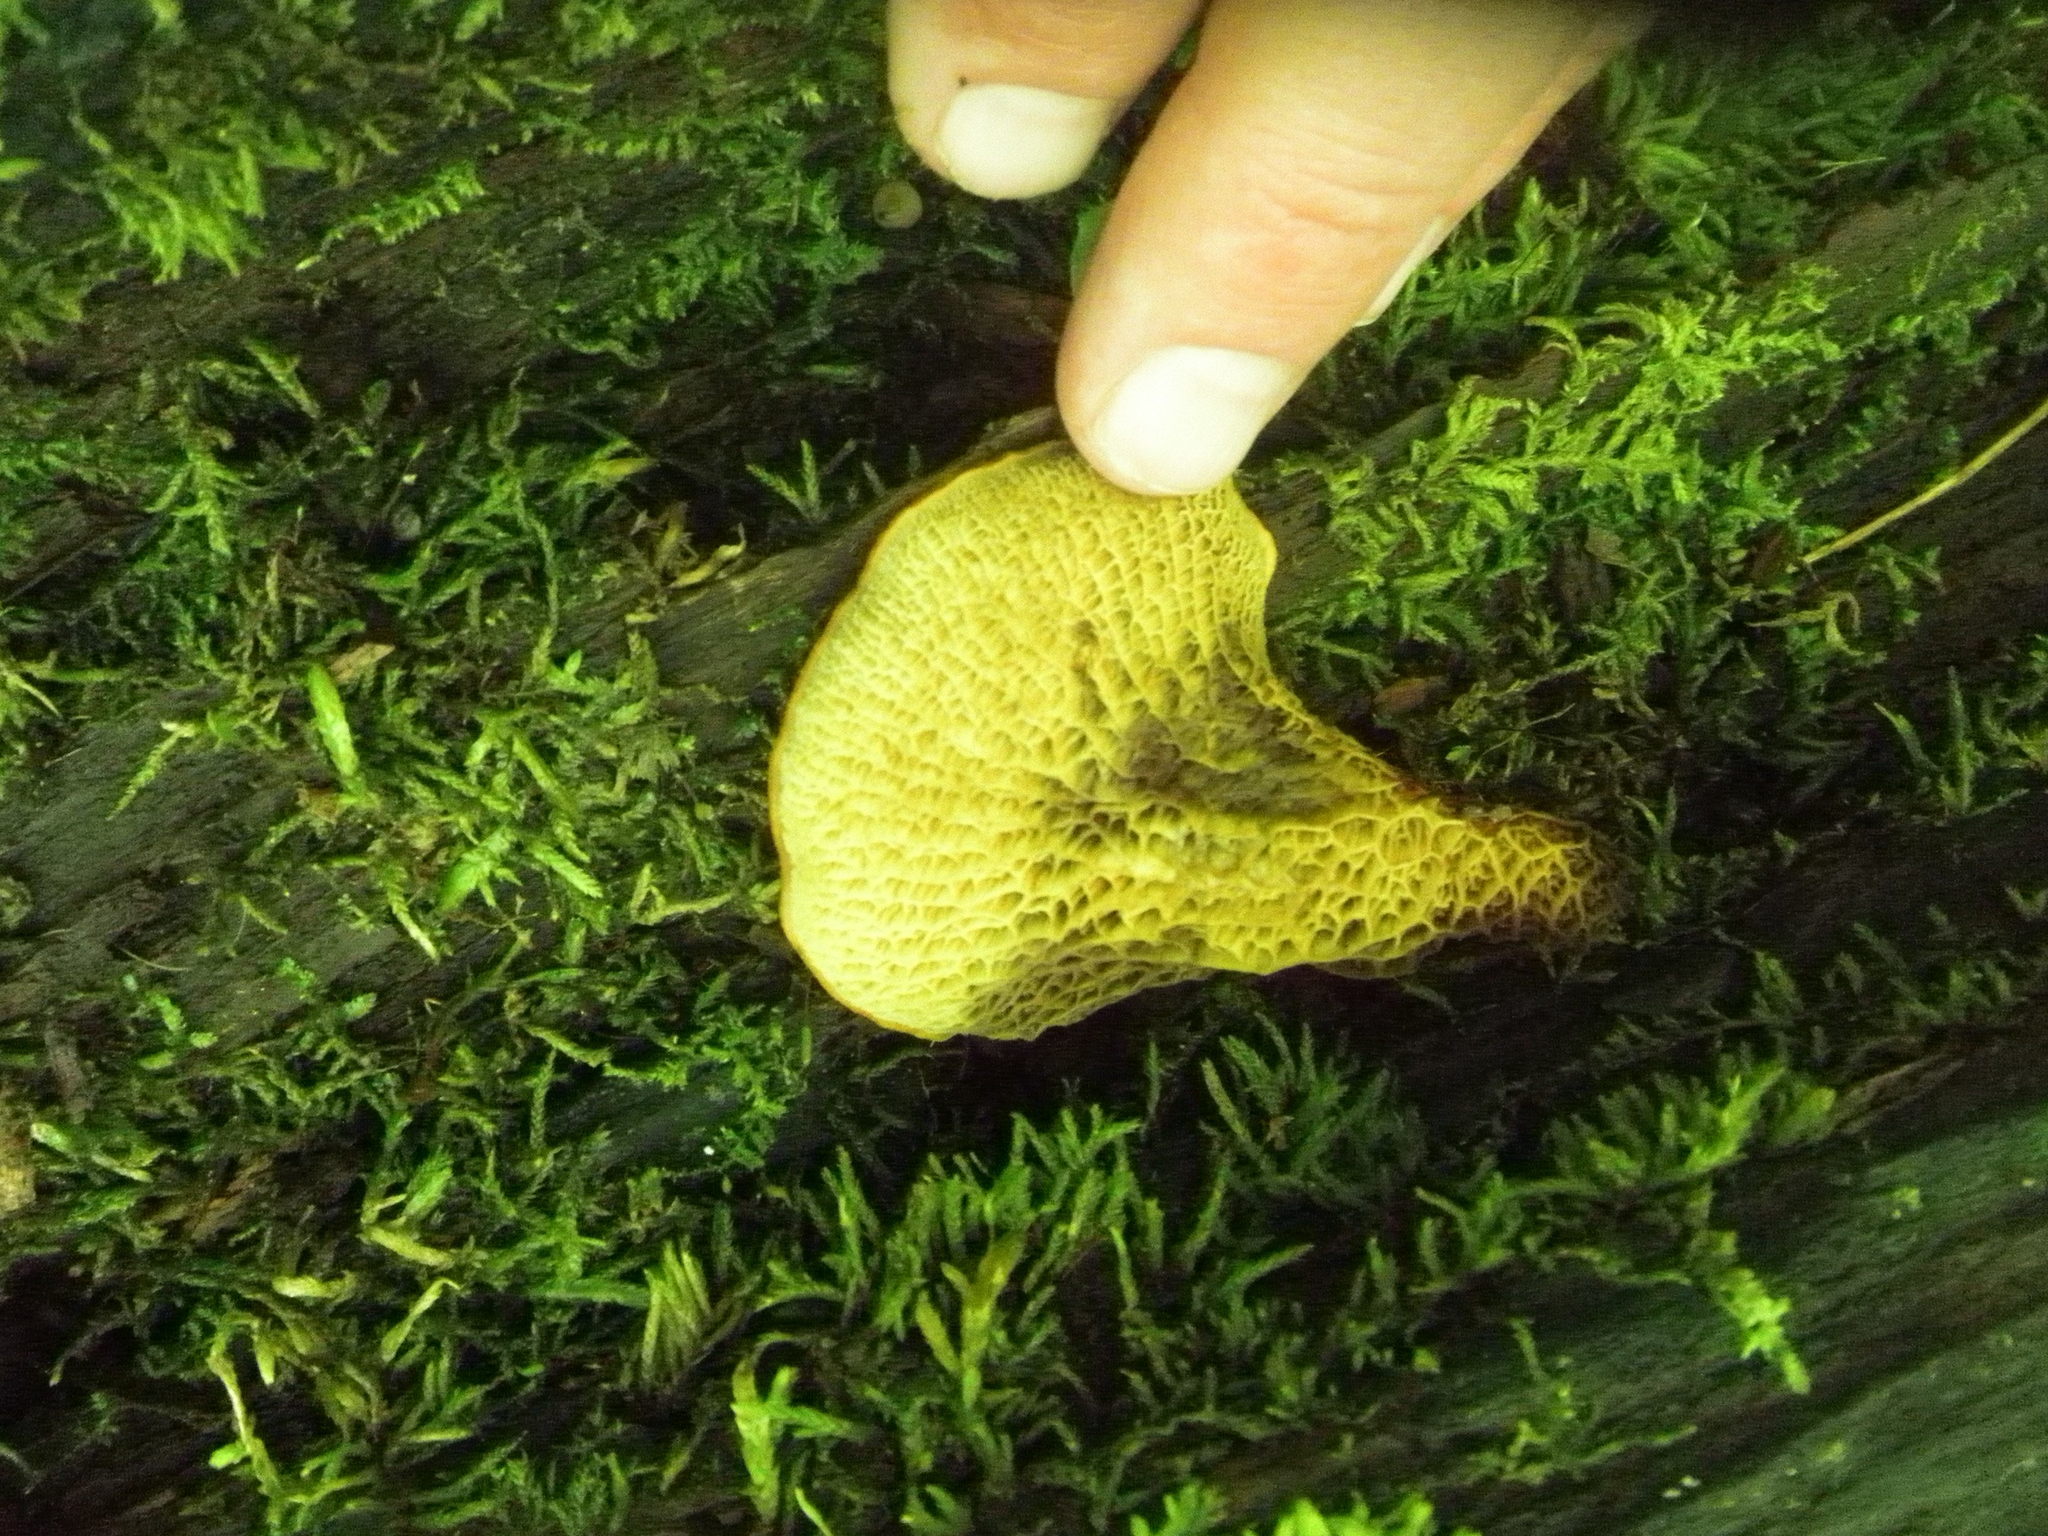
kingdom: Fungi
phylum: Basidiomycota
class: Agaricomycetes
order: Boletales
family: Boletinellaceae
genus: Boletinellus
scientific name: Boletinellus merulioides
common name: Ash tree bolete
